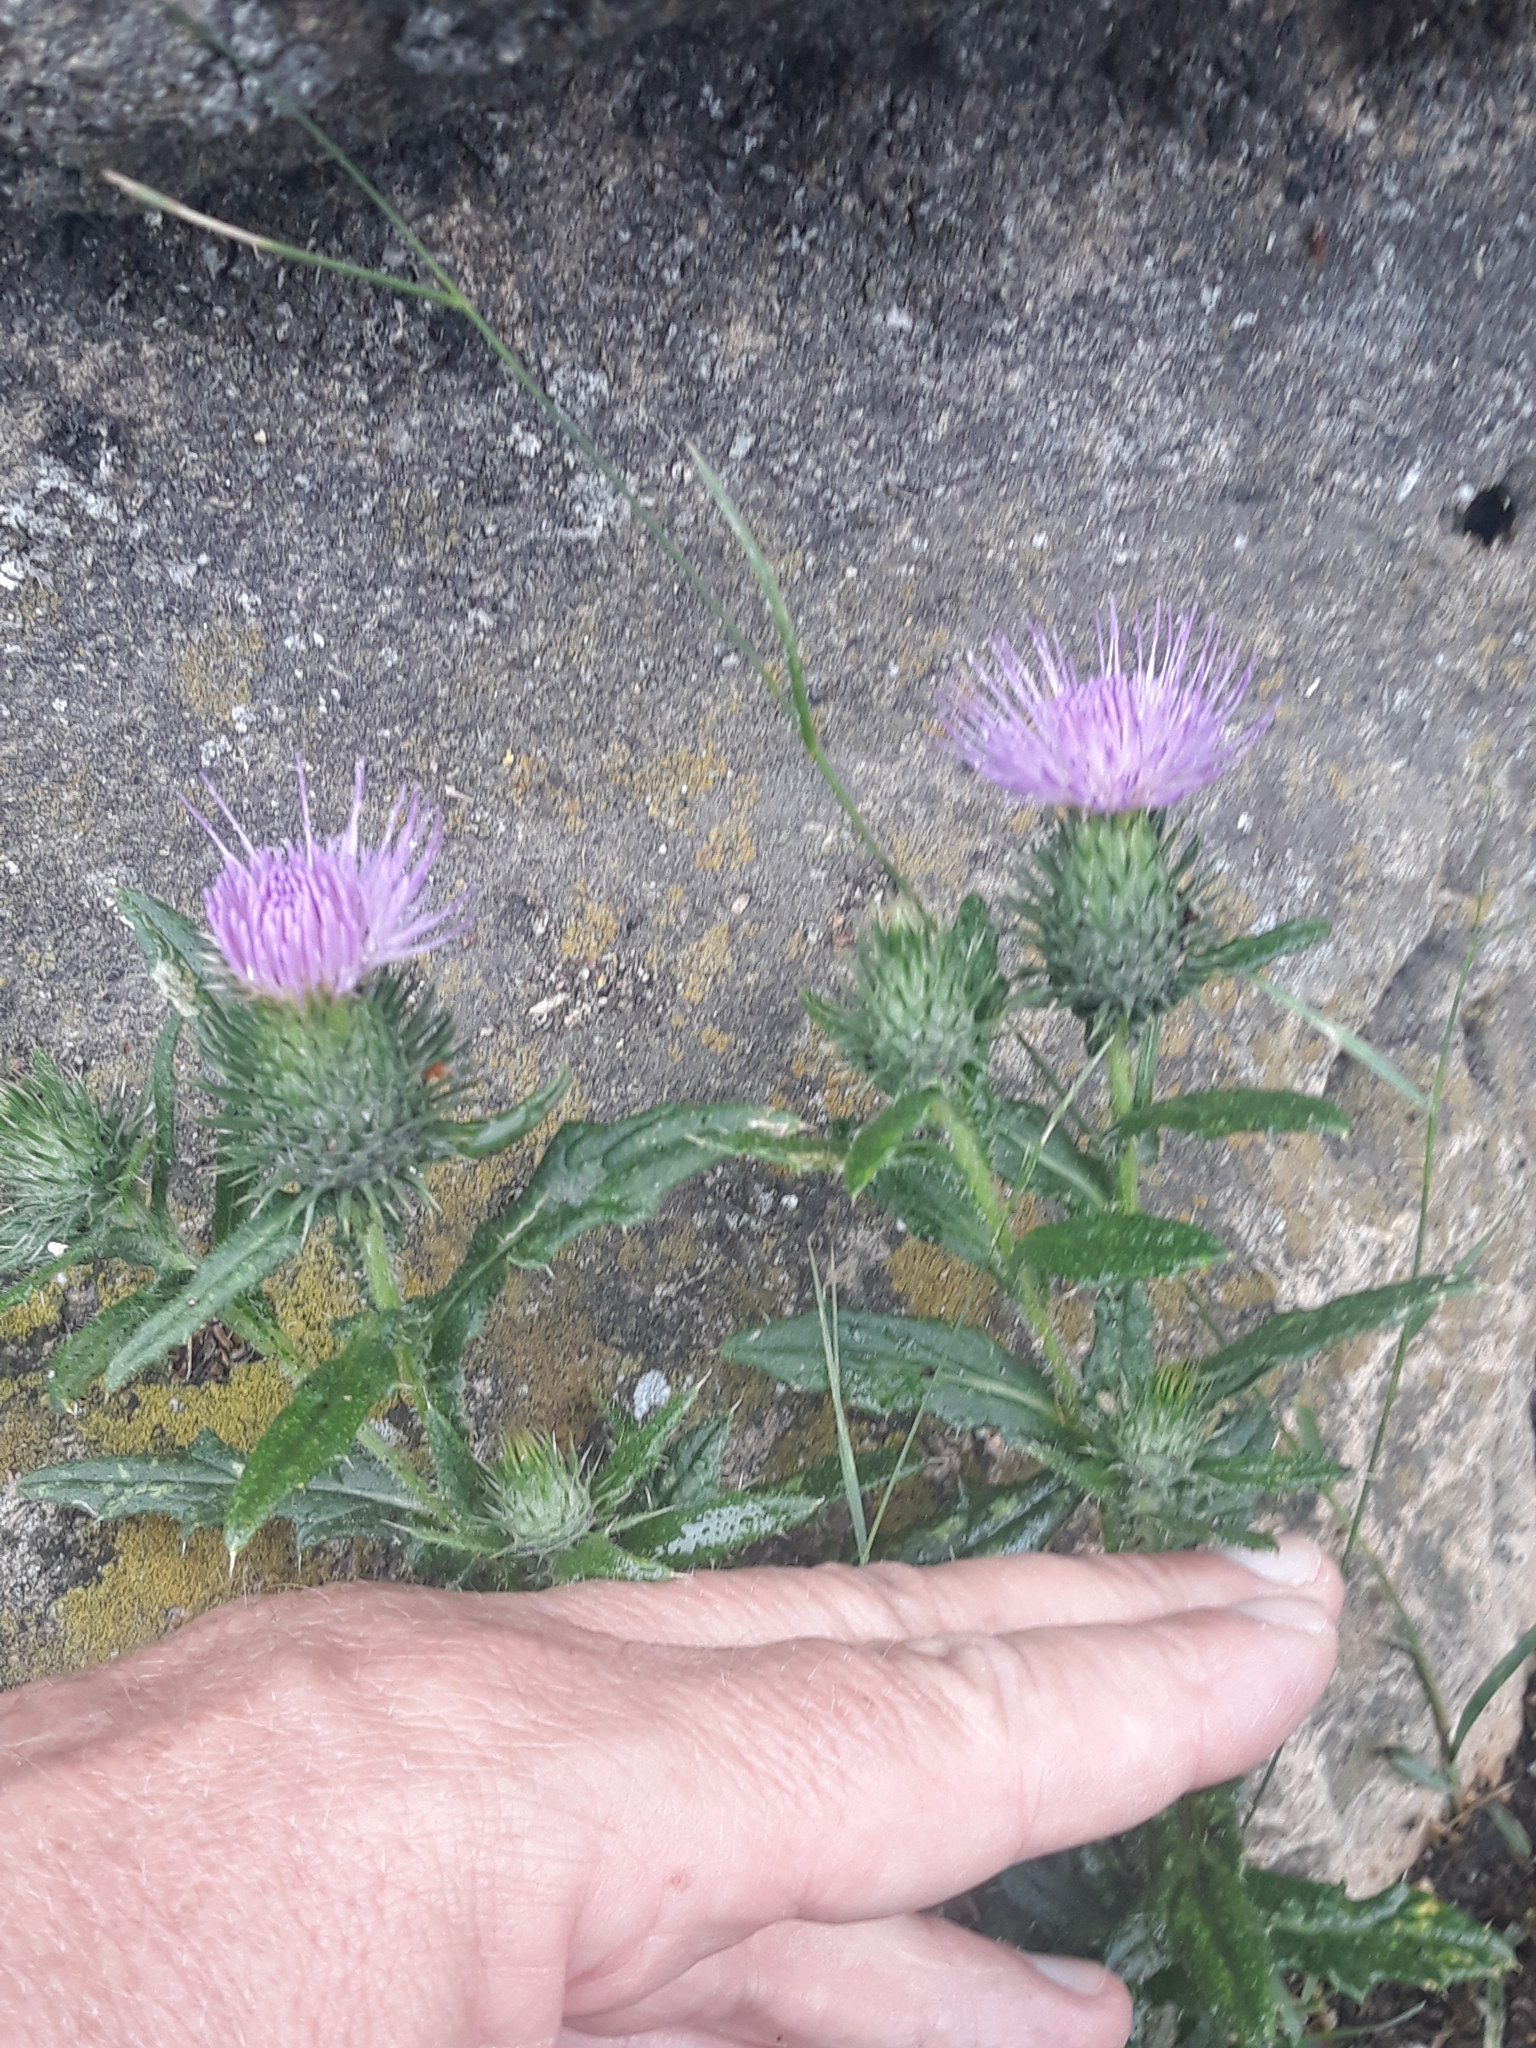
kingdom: Plantae
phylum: Tracheophyta
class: Magnoliopsida
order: Asterales
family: Asteraceae
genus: Cirsium
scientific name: Cirsium vulgare
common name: Bull thistle
